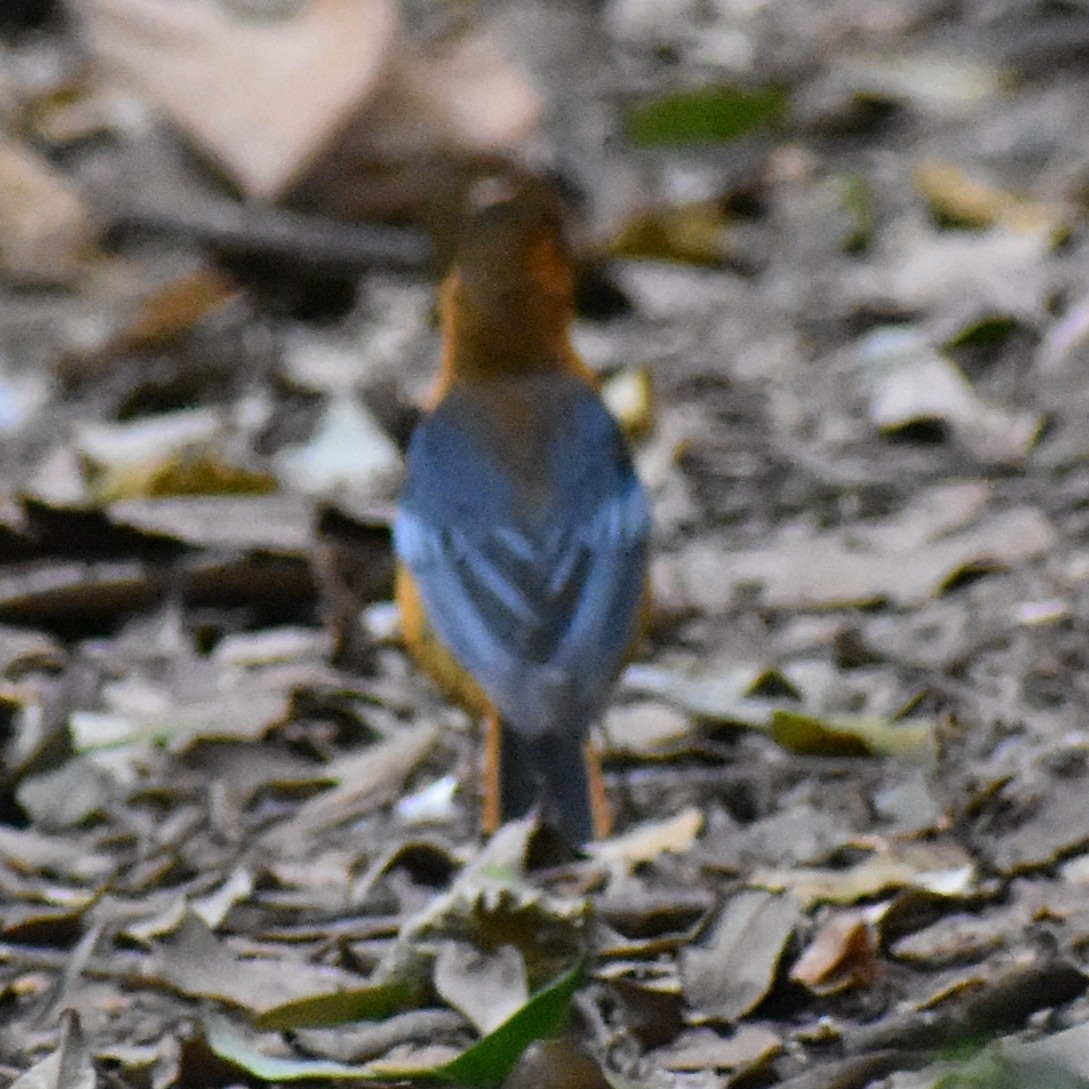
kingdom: Animalia
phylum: Chordata
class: Aves
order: Passeriformes
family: Muscicapidae
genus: Cossypha
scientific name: Cossypha natalensis
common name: Red-capped robin-chat
